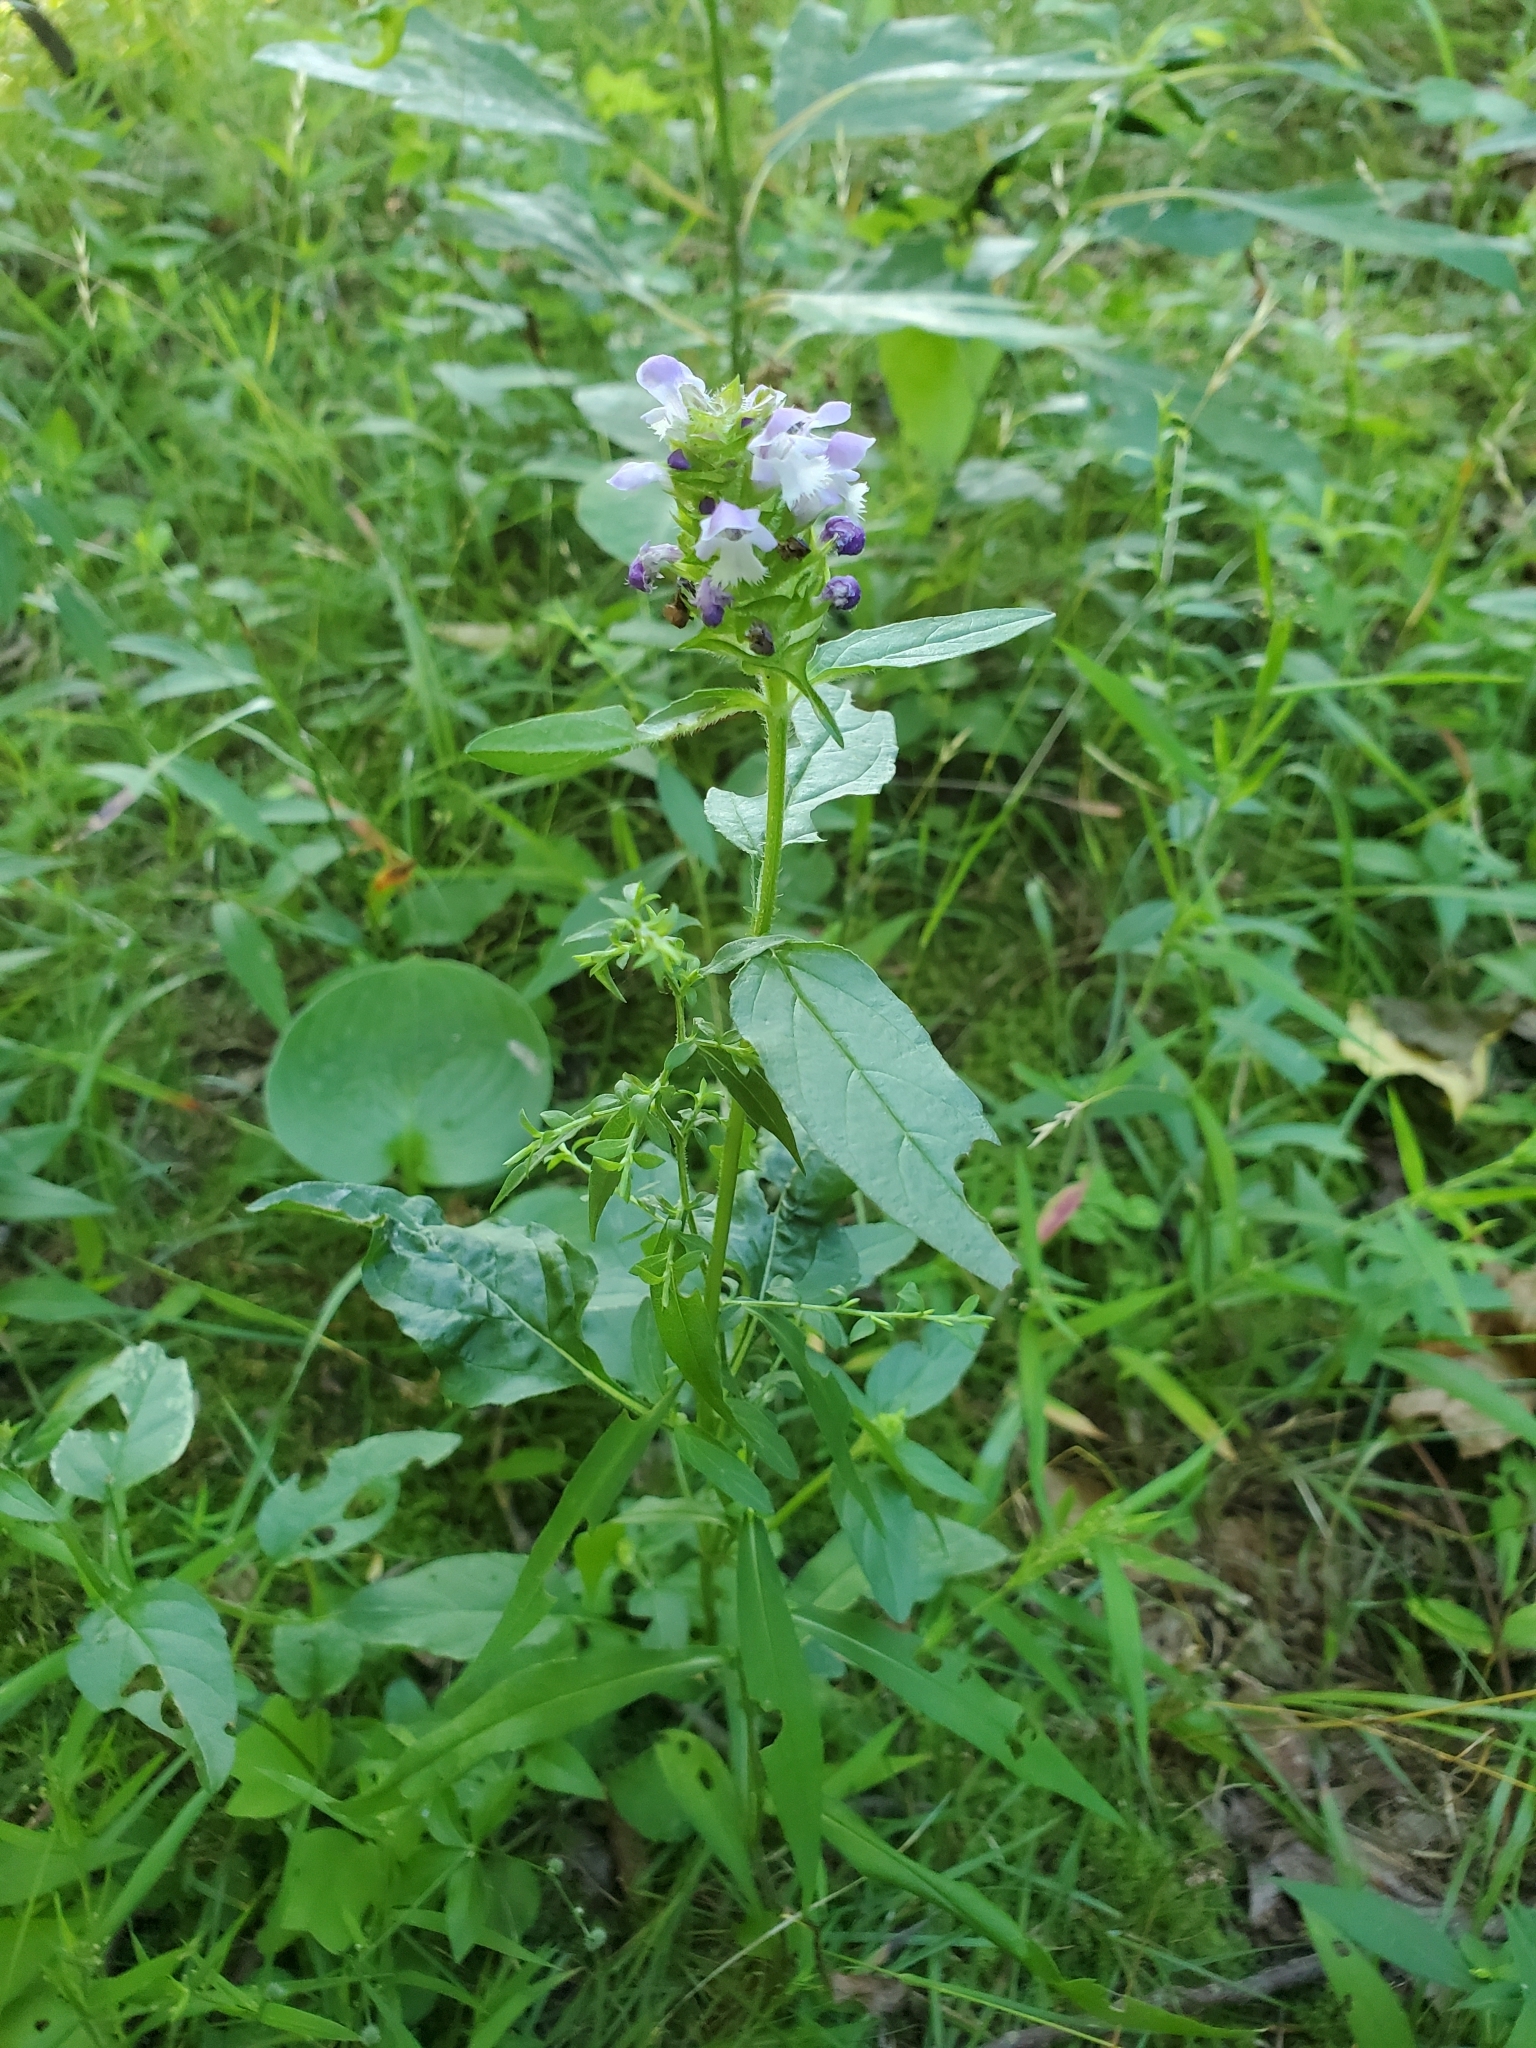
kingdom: Plantae
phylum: Tracheophyta
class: Magnoliopsida
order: Lamiales
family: Lamiaceae
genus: Prunella
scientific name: Prunella vulgaris
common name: Heal-all
